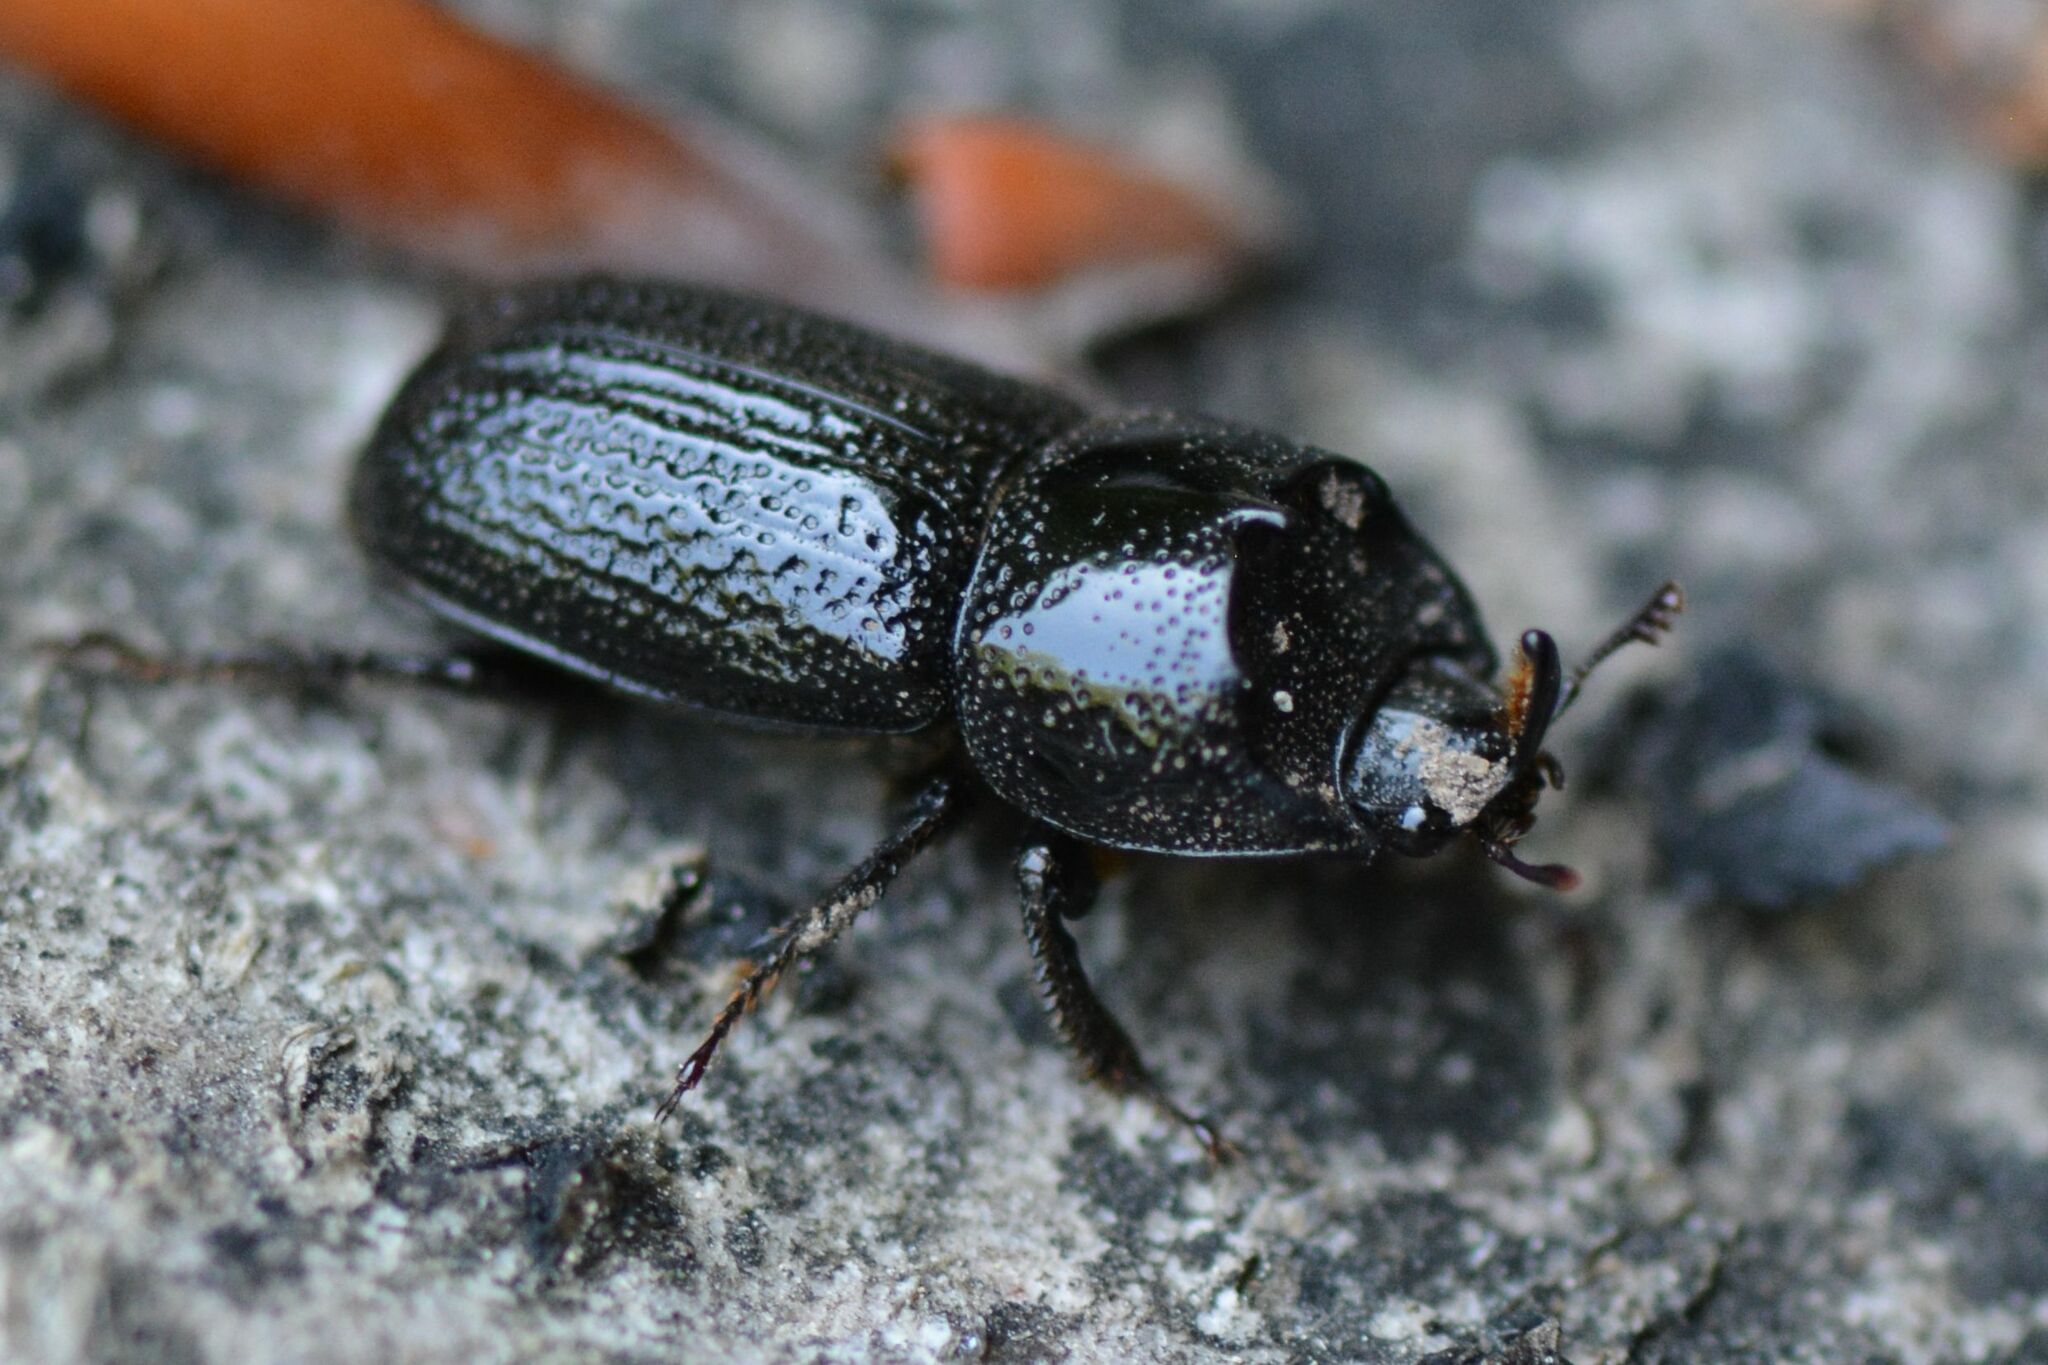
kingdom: Animalia
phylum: Arthropoda
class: Insecta
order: Coleoptera
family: Lucanidae
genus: Sinodendron
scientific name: Sinodendron cylindricum
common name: Rhinoceros beetle
